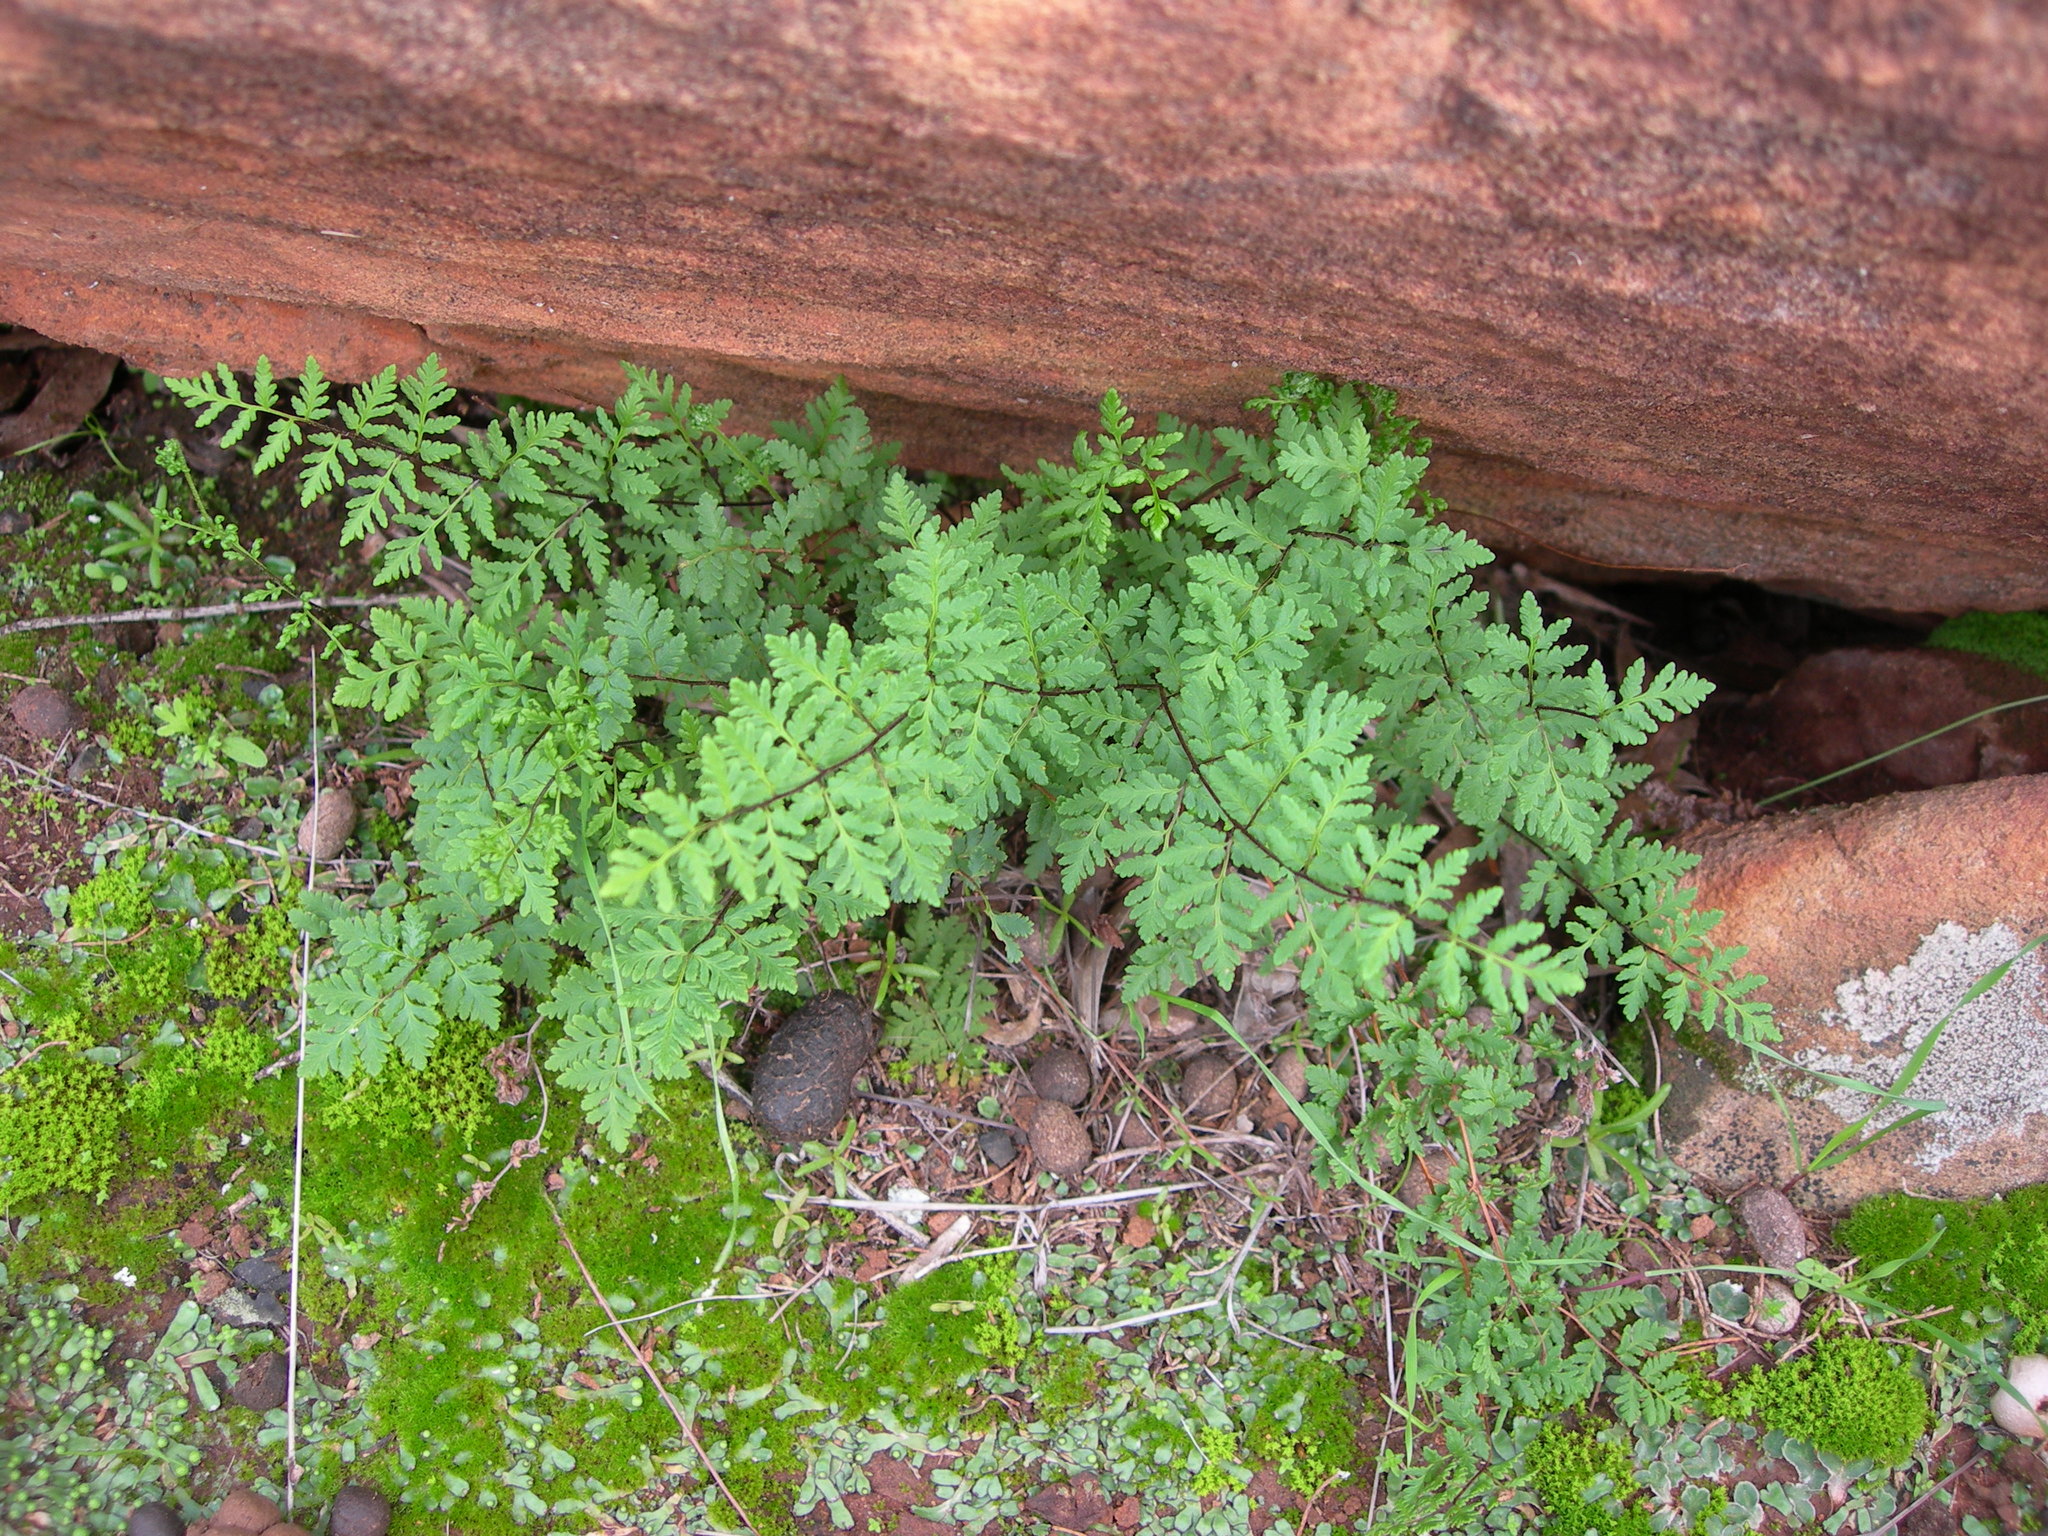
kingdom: Plantae
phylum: Tracheophyta
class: Polypodiopsida
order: Polypodiales
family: Pteridaceae
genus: Cheilanthes
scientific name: Cheilanthes sieberi
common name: Mulga fern
